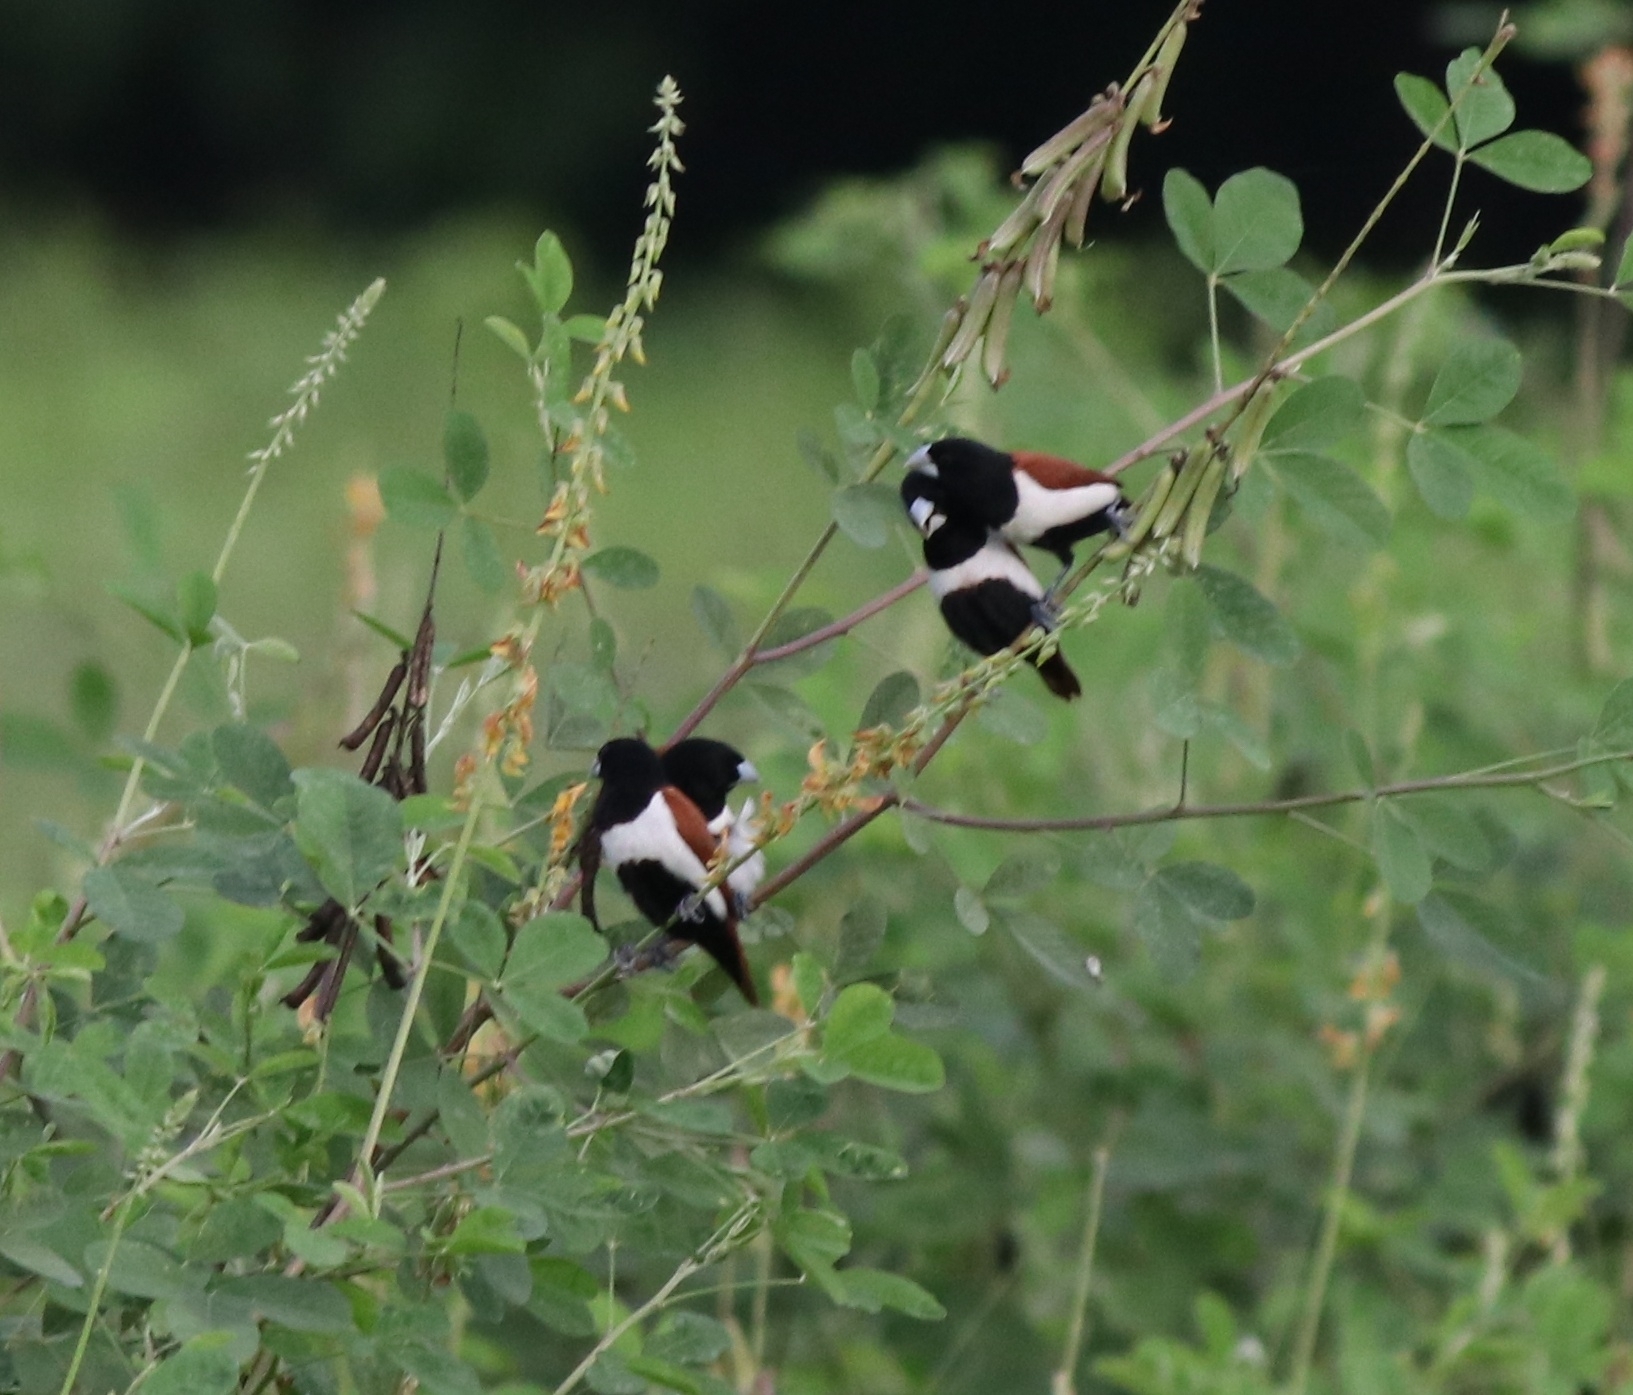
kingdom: Animalia
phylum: Chordata
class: Aves
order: Passeriformes
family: Estrildidae
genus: Lonchura
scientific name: Lonchura malacca
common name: Tricolored munia
